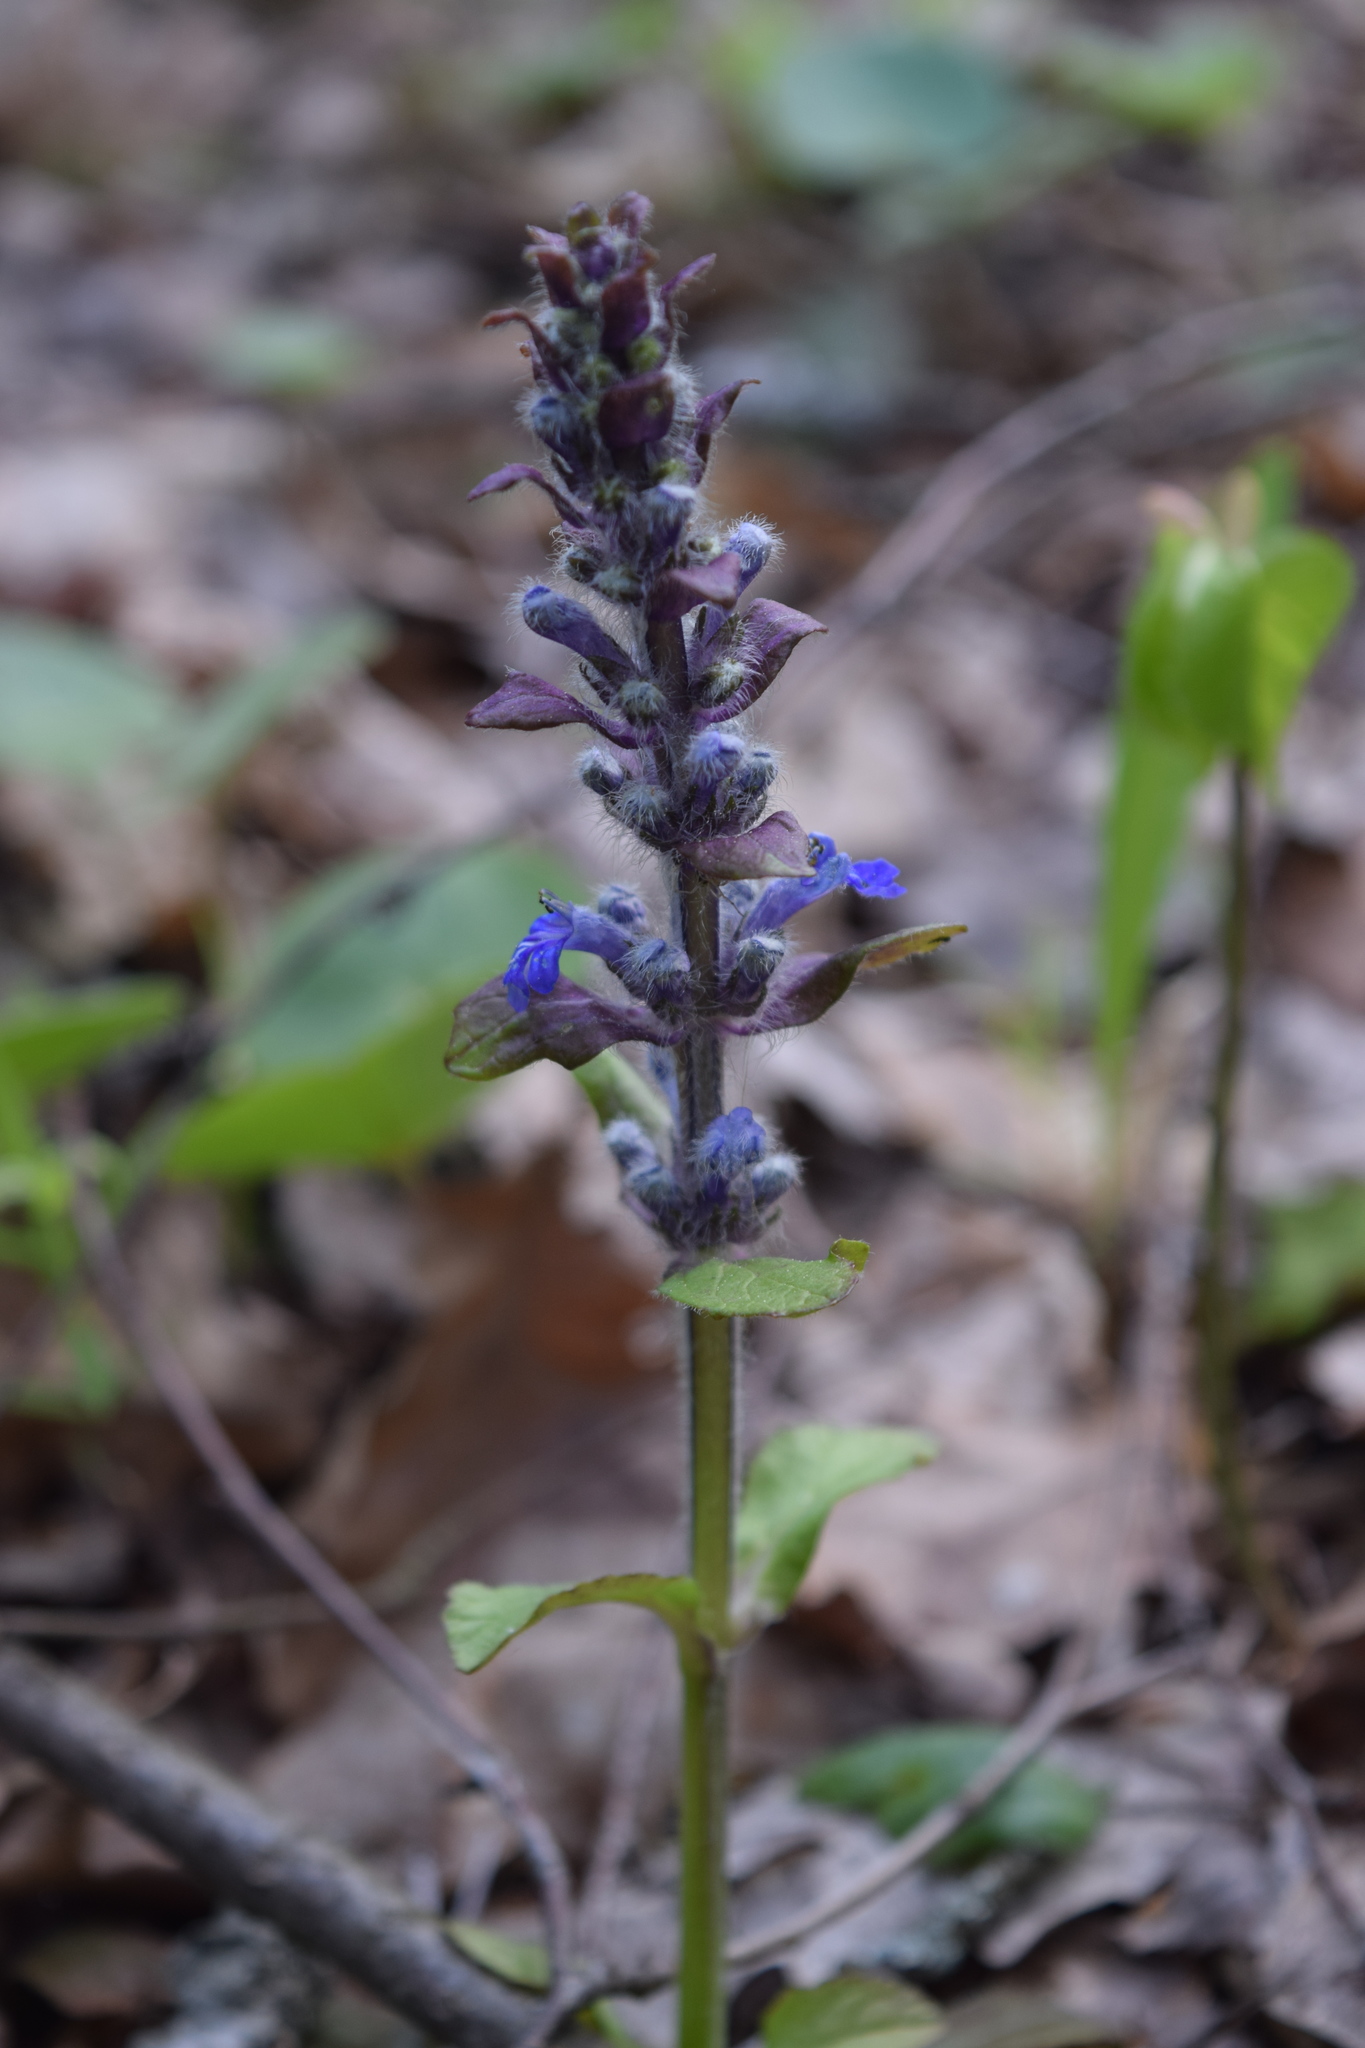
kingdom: Plantae
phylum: Tracheophyta
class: Magnoliopsida
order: Lamiales
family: Lamiaceae
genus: Ajuga
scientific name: Ajuga reptans
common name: Bugle
